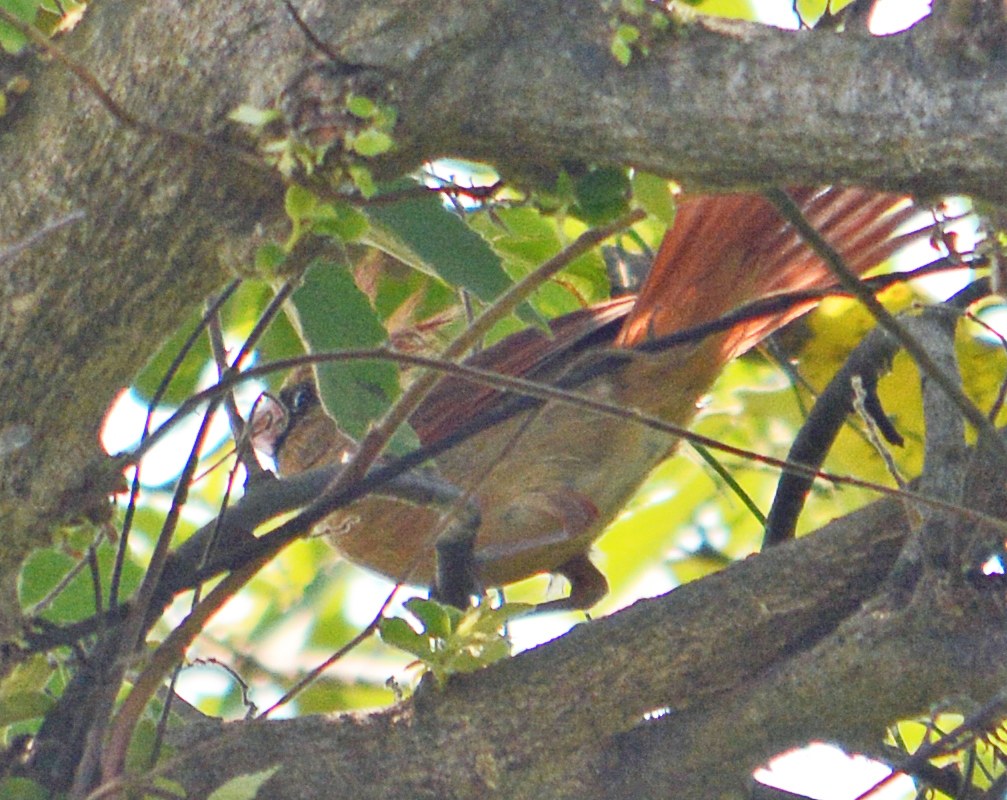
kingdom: Animalia
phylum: Chordata
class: Aves
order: Passeriformes
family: Cardinalidae
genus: Cardinalis
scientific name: Cardinalis cardinalis
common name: Northern cardinal
